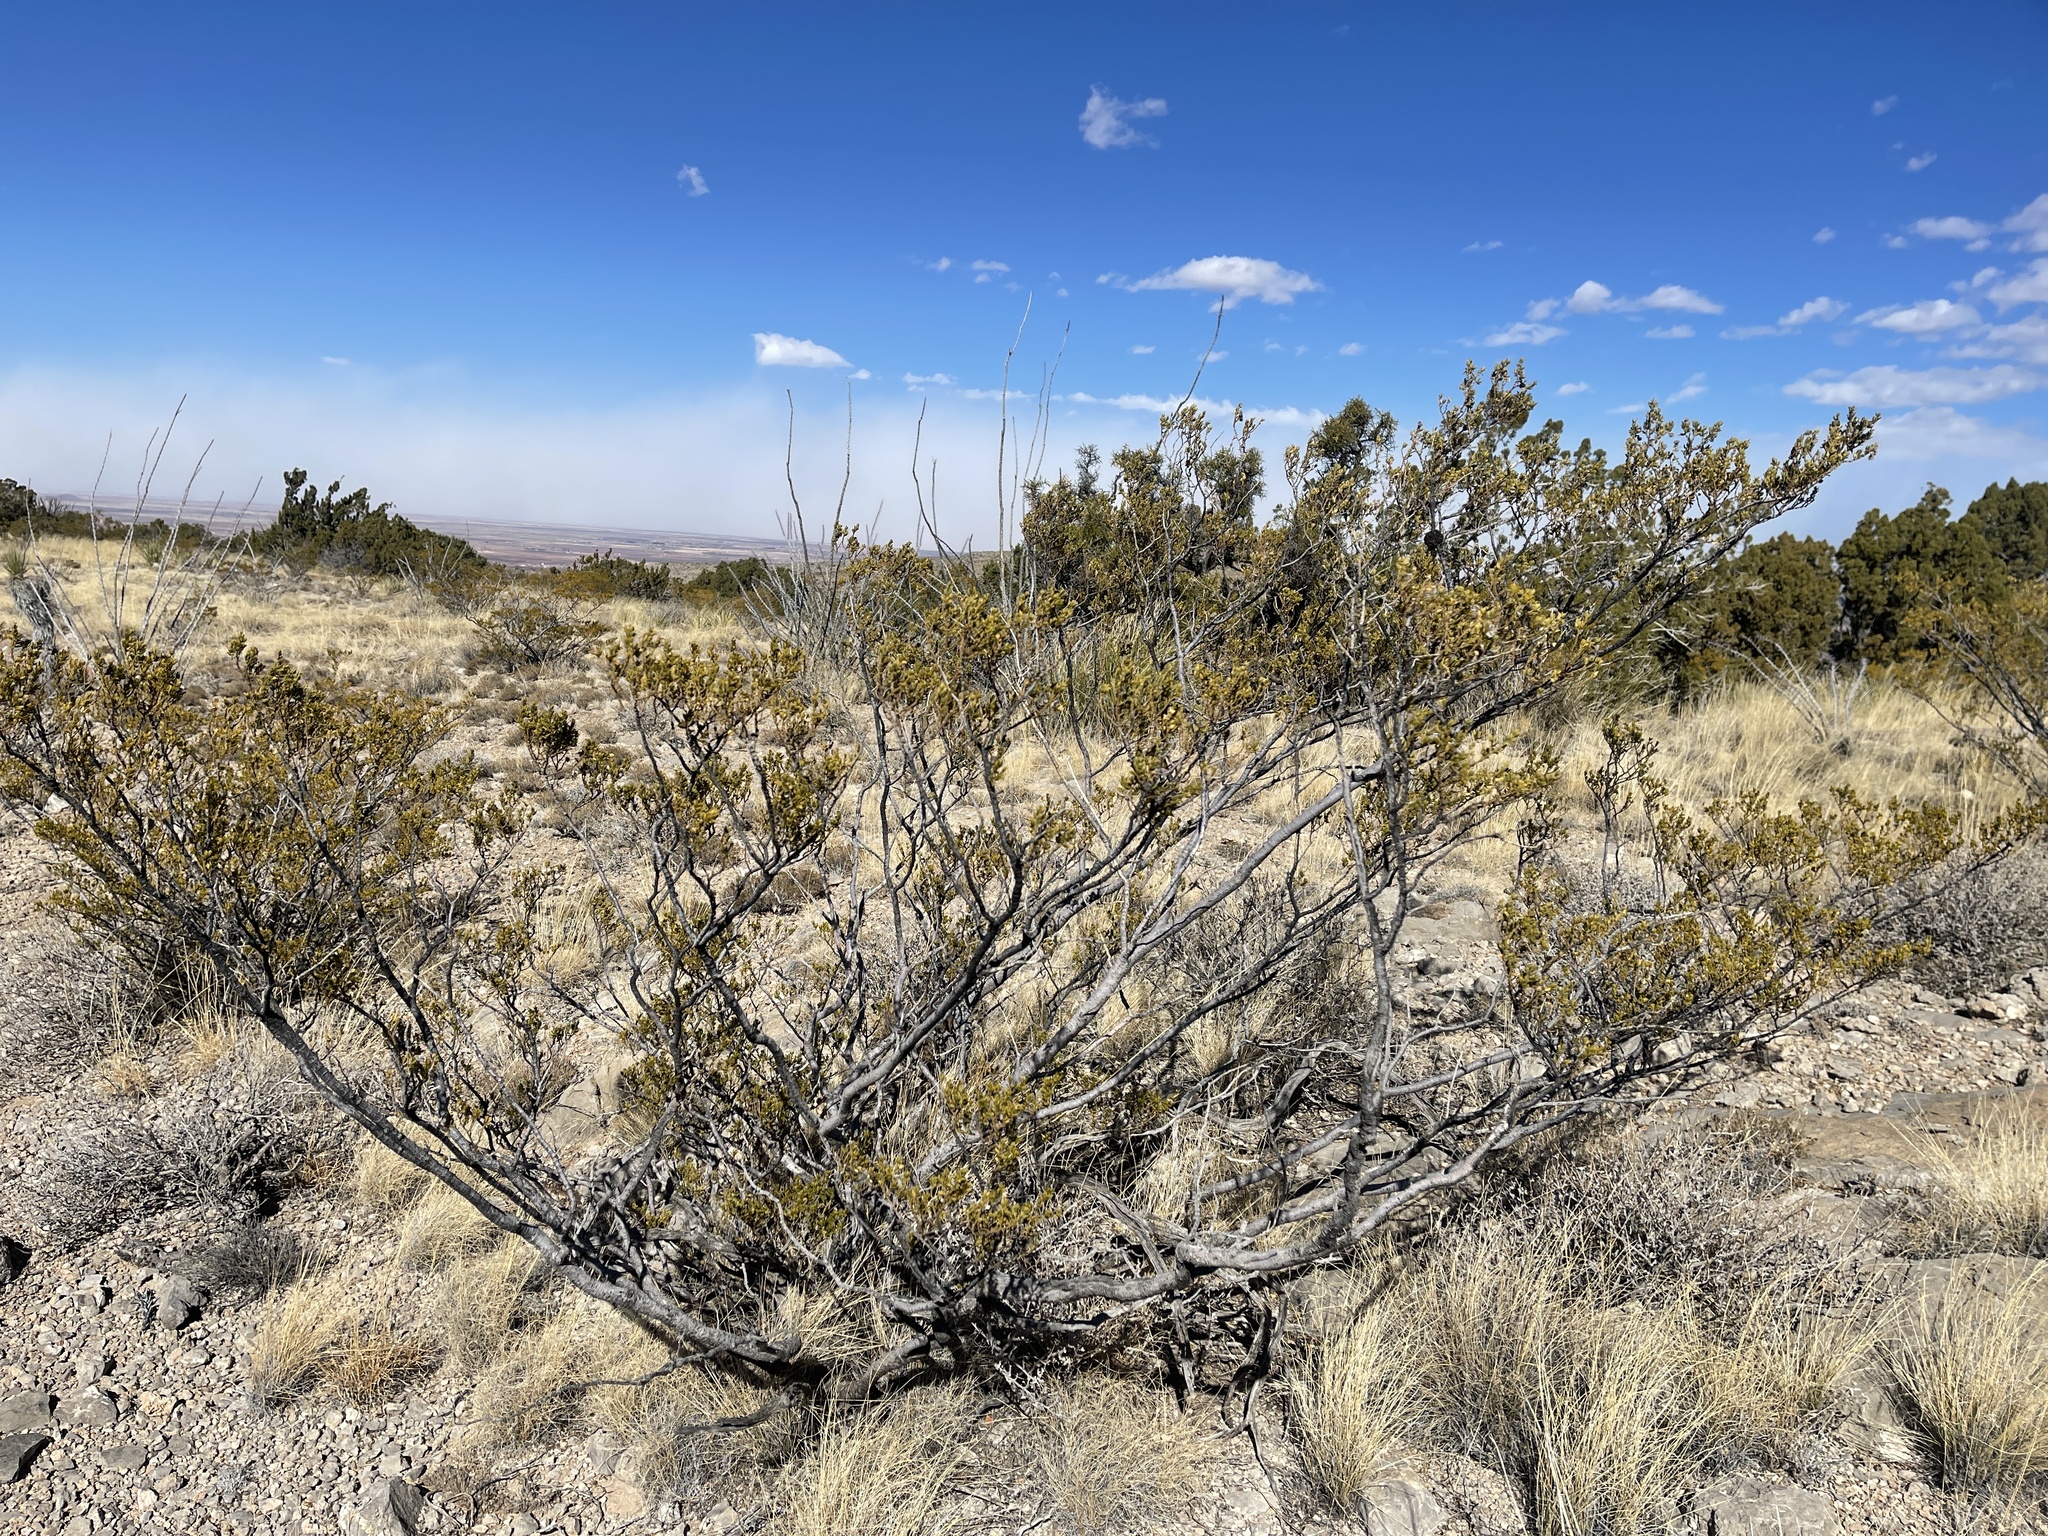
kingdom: Plantae
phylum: Tracheophyta
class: Magnoliopsida
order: Zygophyllales
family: Zygophyllaceae
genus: Larrea
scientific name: Larrea tridentata
